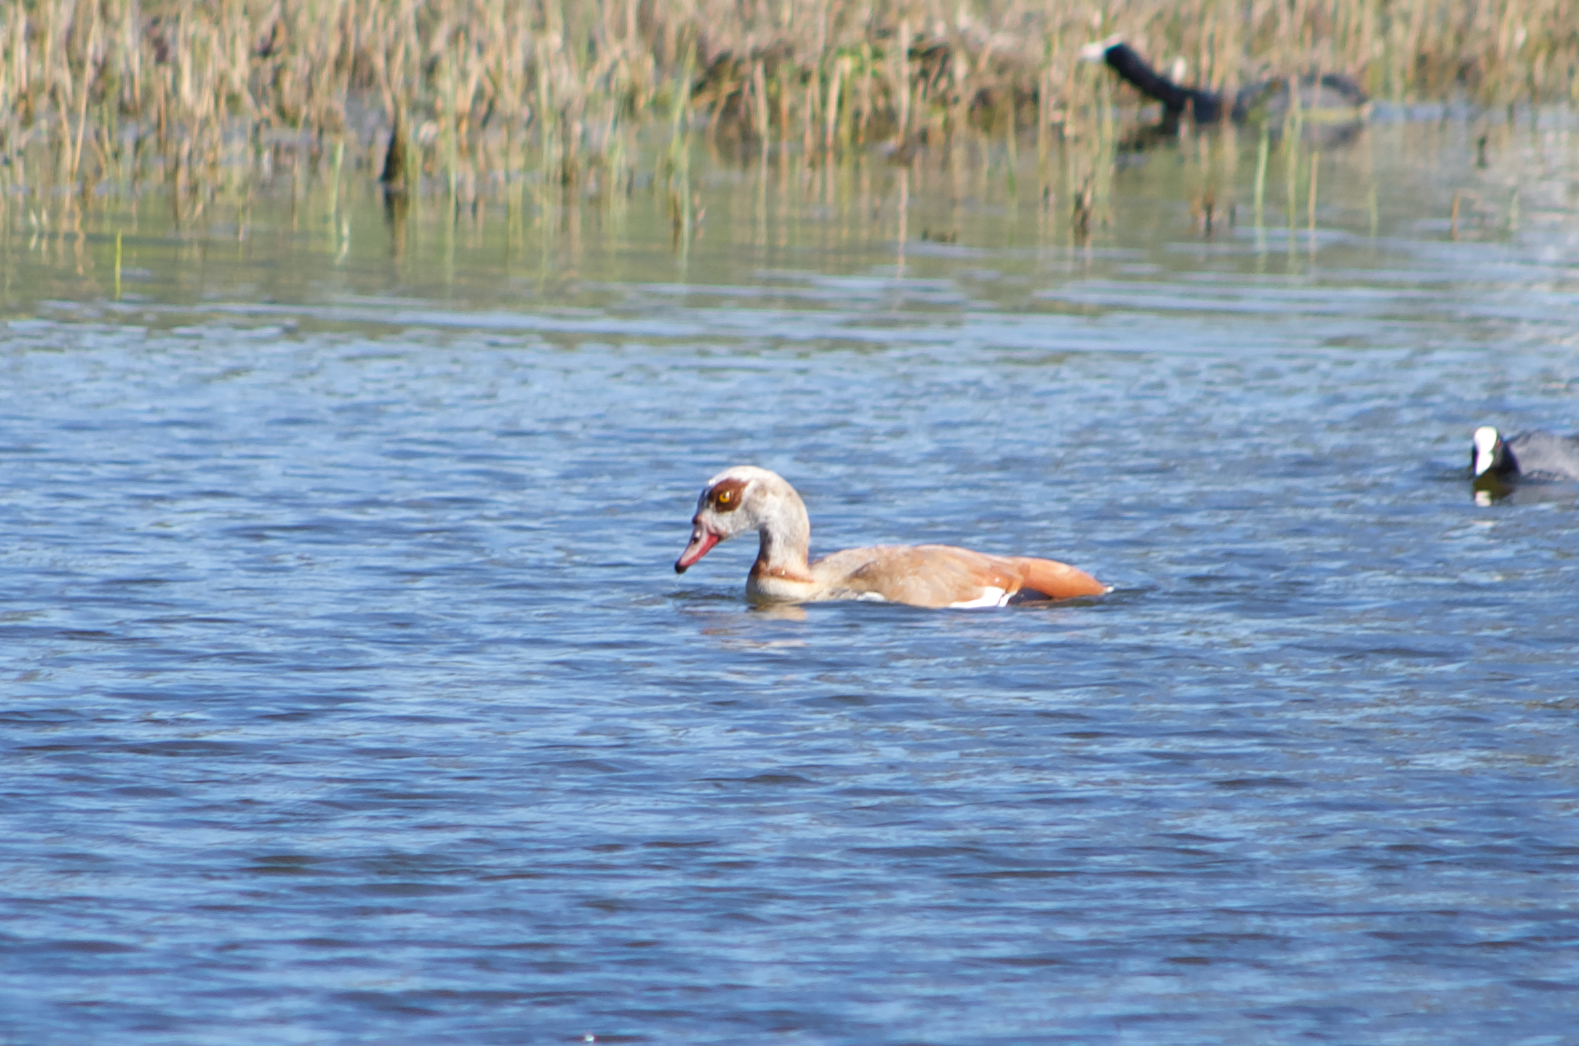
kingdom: Animalia
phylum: Chordata
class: Aves
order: Anseriformes
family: Anatidae
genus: Alopochen
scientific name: Alopochen aegyptiaca
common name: Egyptian goose
